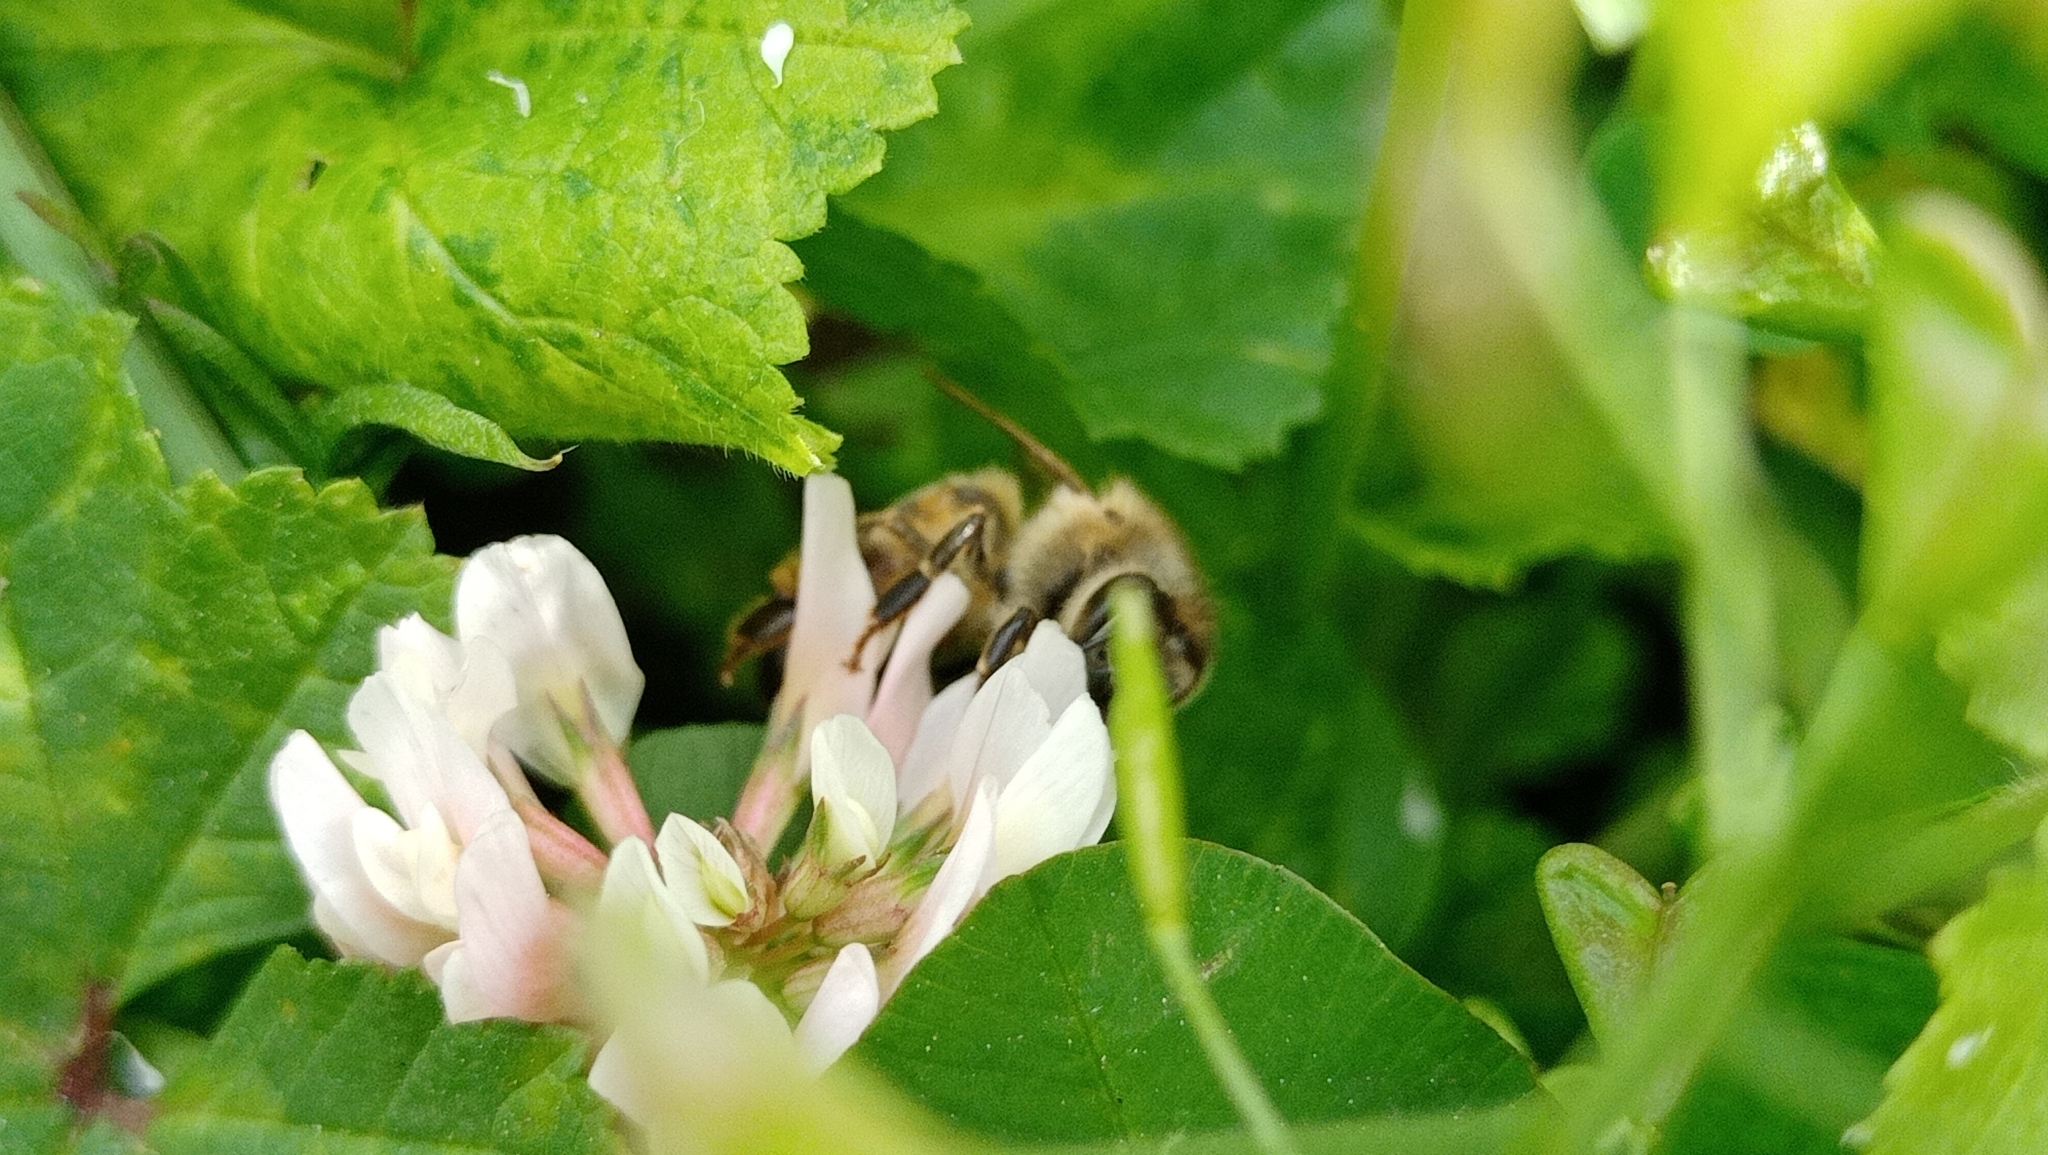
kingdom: Animalia
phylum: Arthropoda
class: Insecta
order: Hymenoptera
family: Apidae
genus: Apis
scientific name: Apis mellifera
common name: Honey bee
